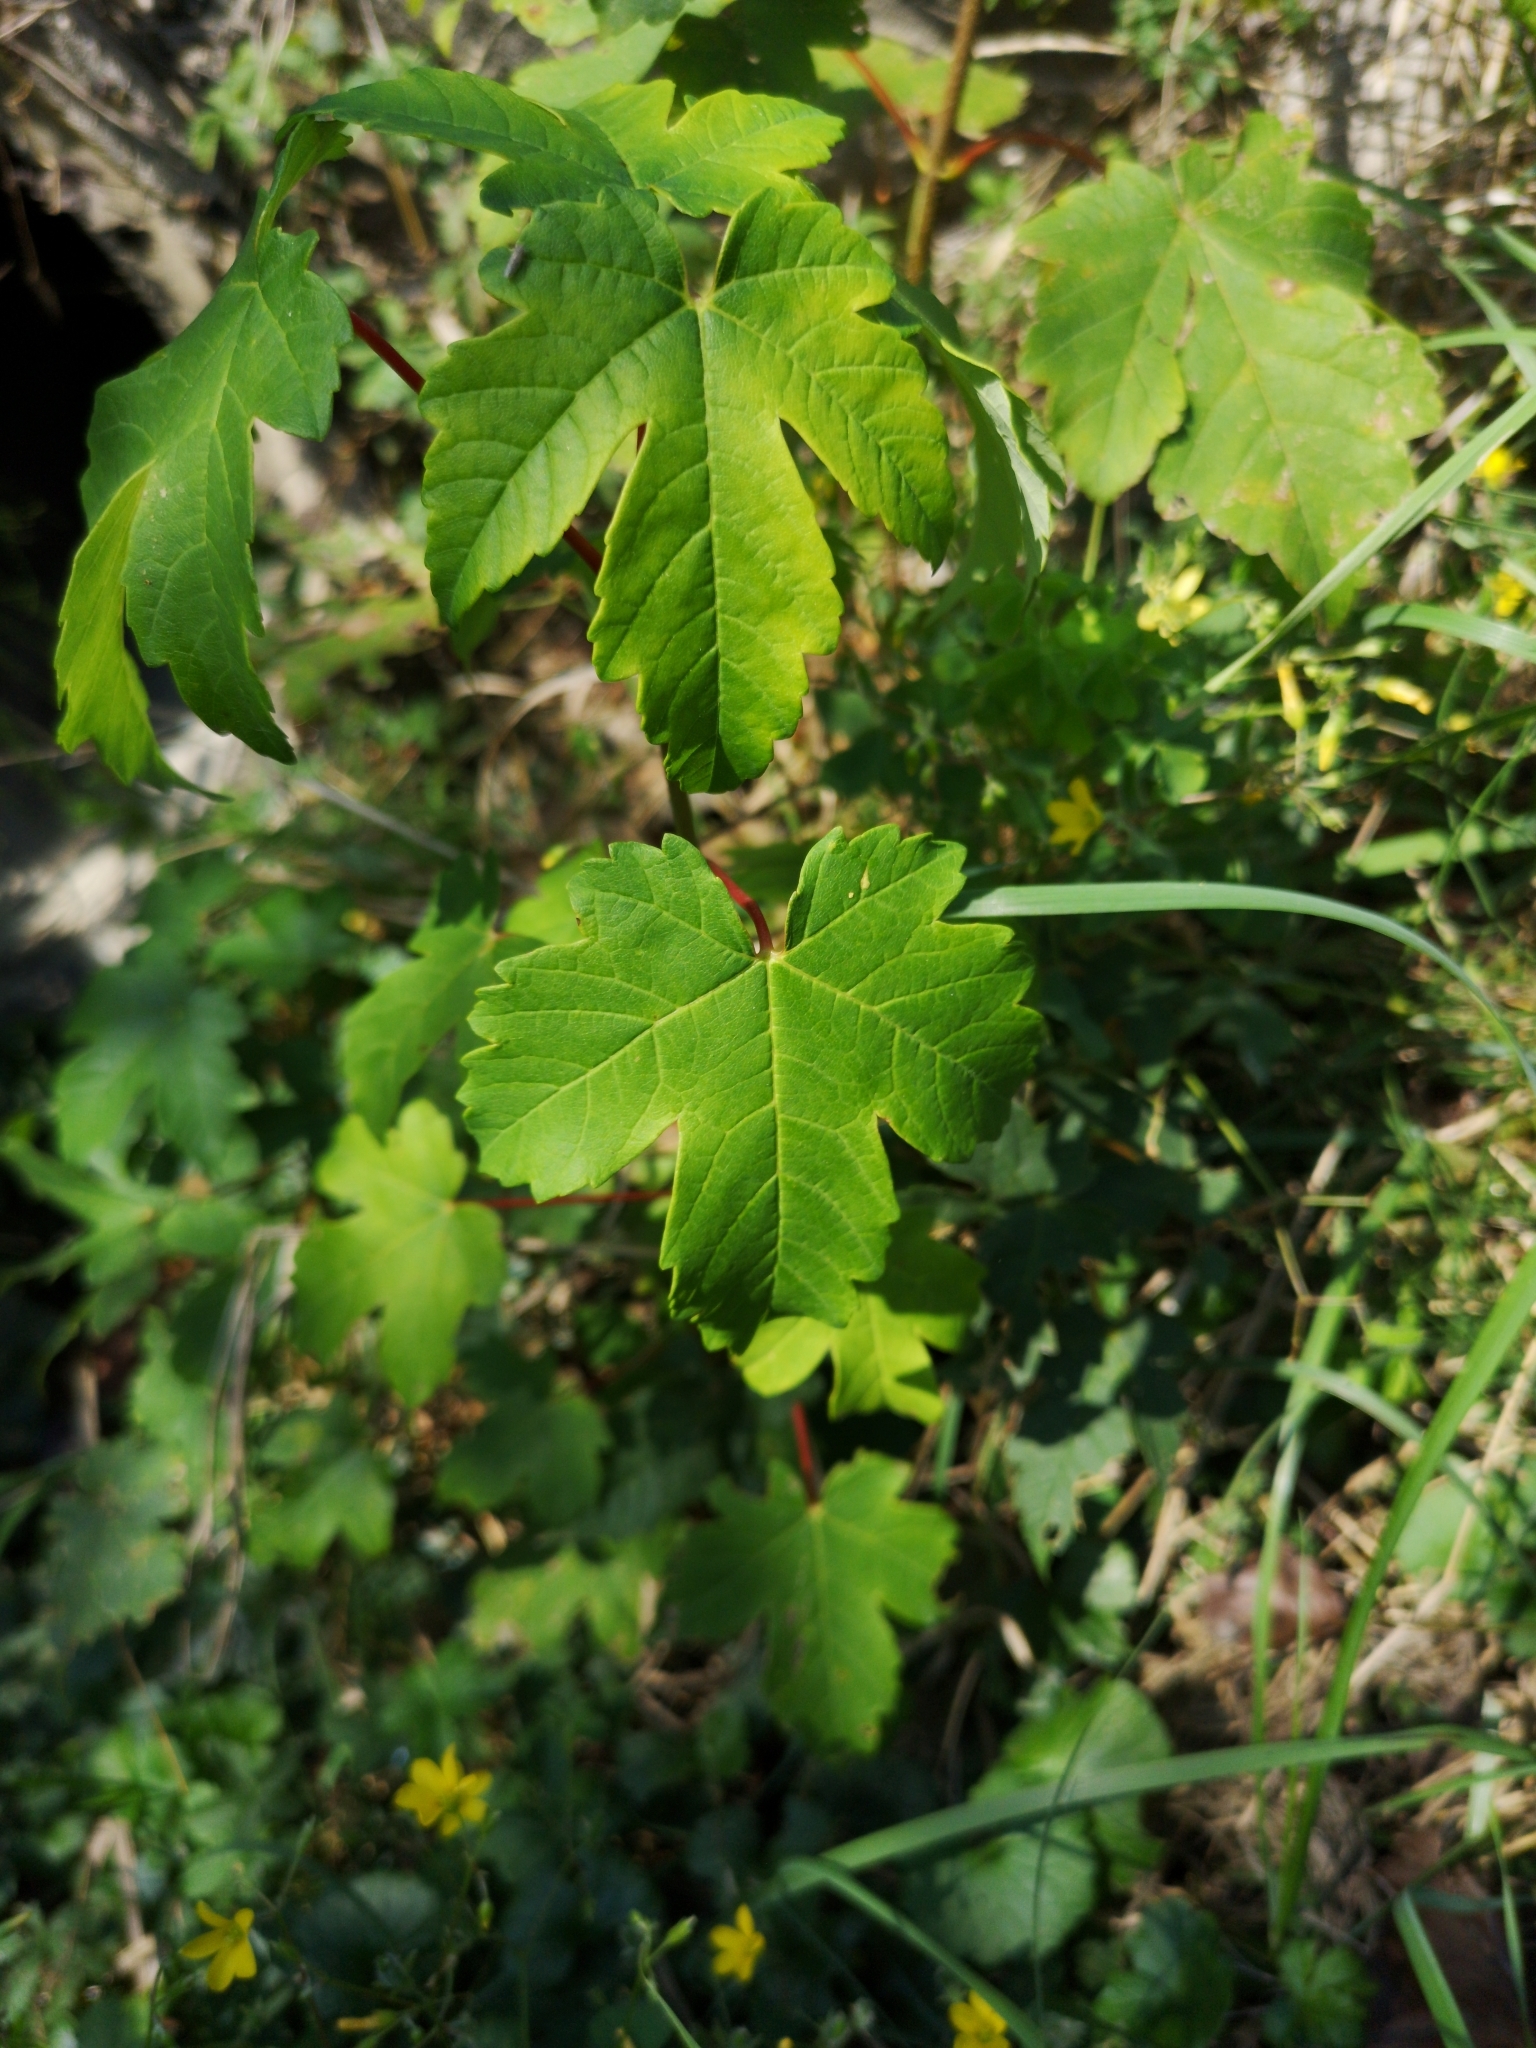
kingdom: Plantae
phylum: Tracheophyta
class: Magnoliopsida
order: Sapindales
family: Sapindaceae
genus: Acer
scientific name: Acer pseudoplatanus
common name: Sycamore
